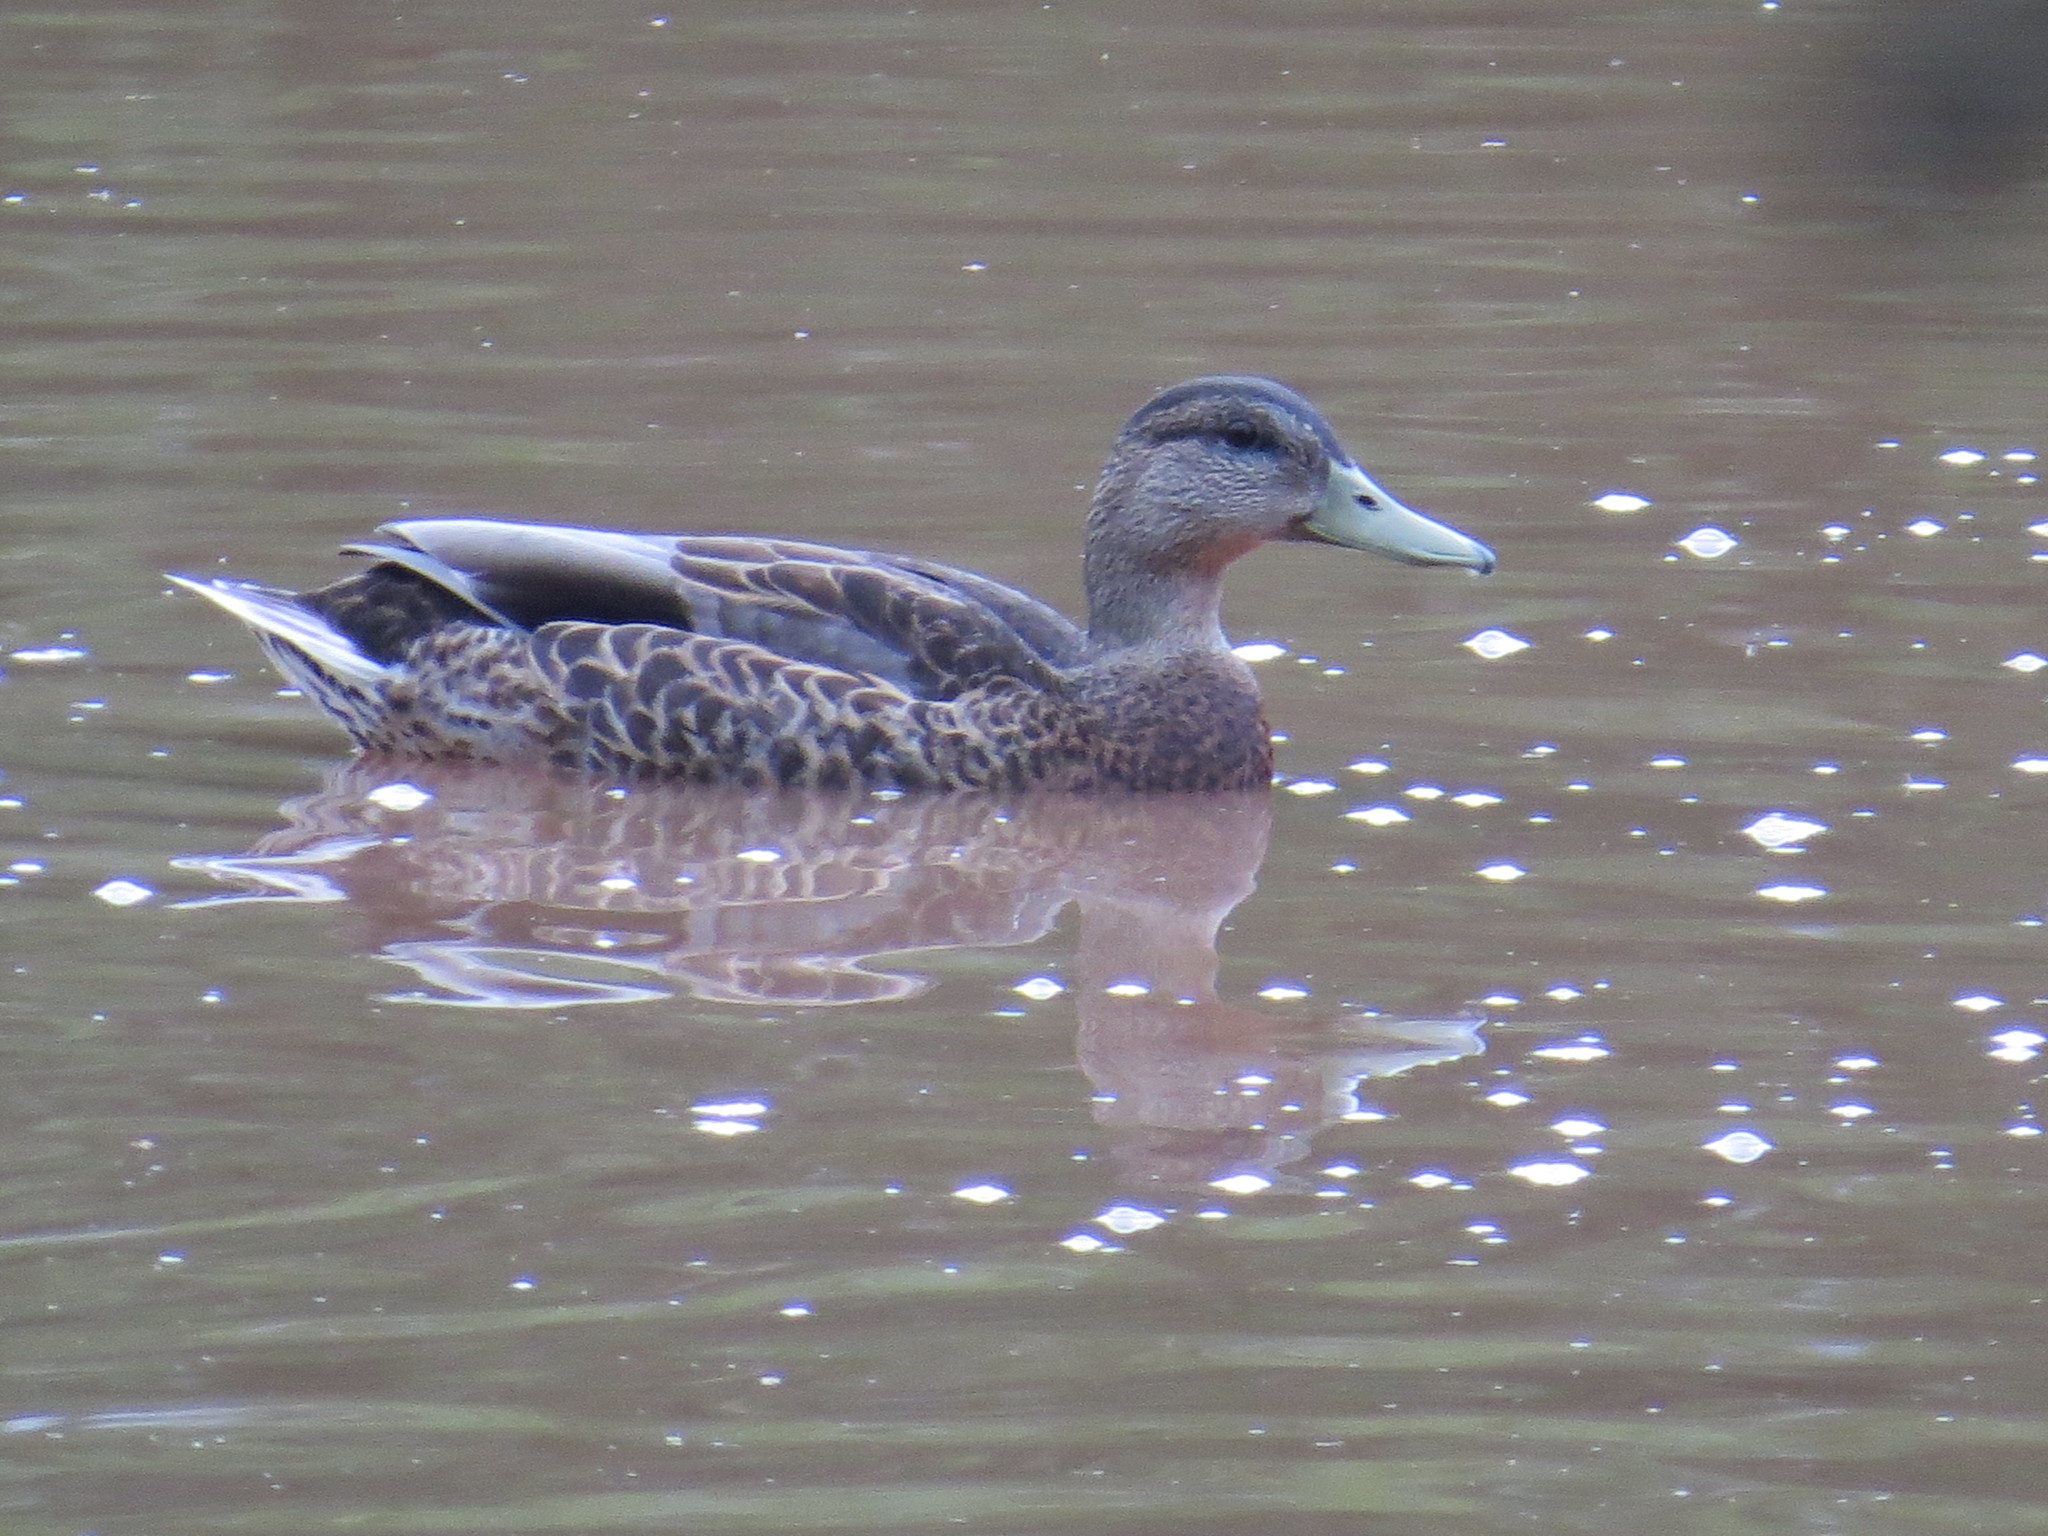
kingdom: Animalia
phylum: Chordata
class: Aves
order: Anseriformes
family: Anatidae
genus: Anas
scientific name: Anas platyrhynchos
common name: Mallard
